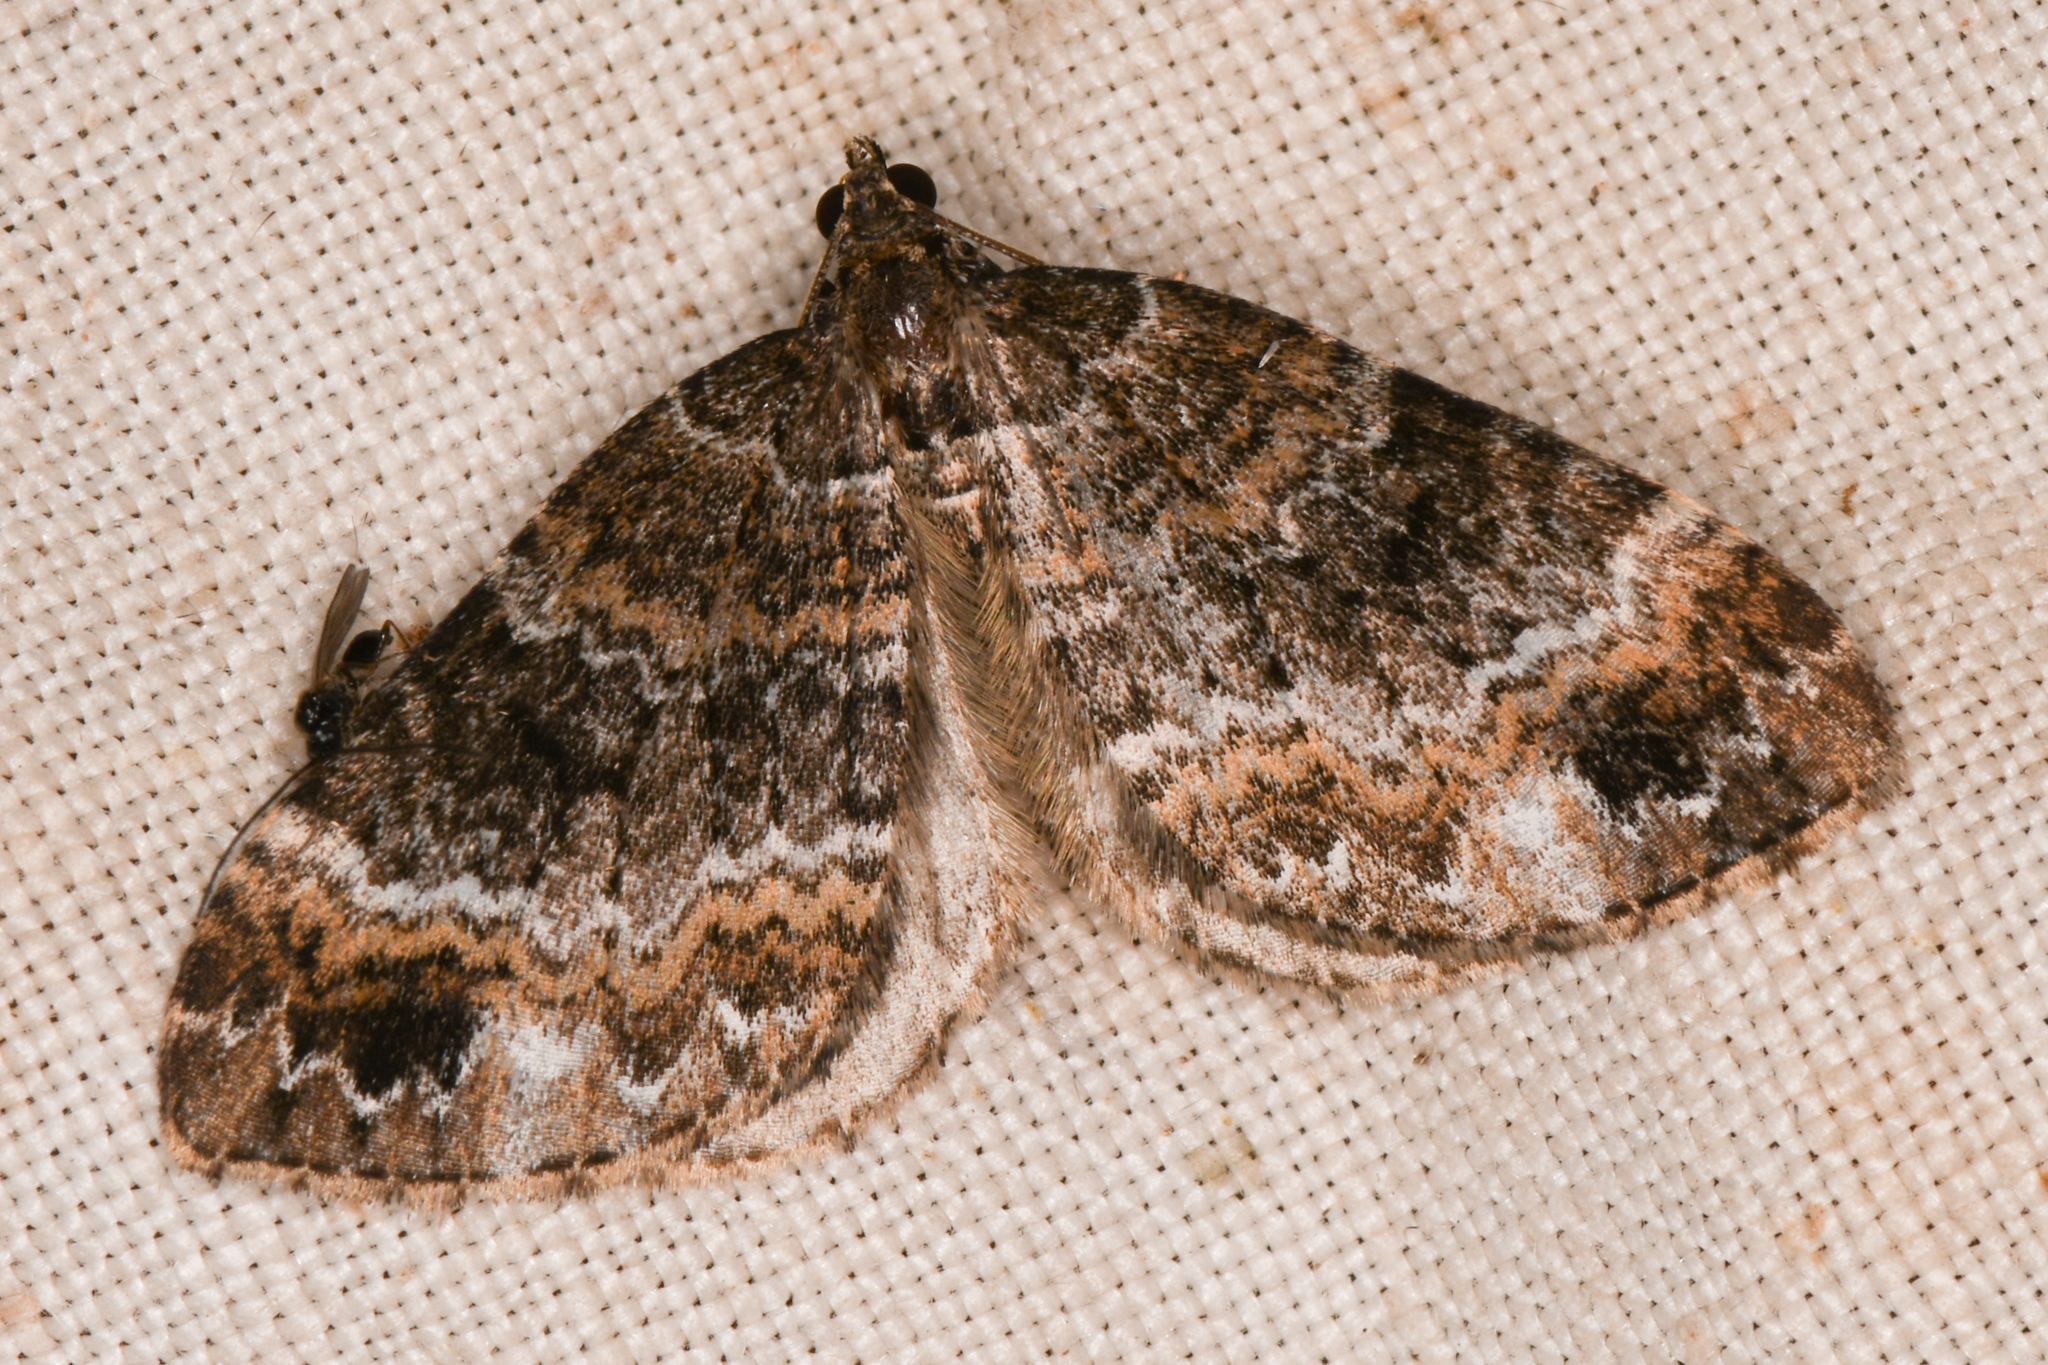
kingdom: Animalia
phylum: Arthropoda
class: Insecta
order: Lepidoptera
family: Geometridae
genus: Martania
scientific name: Martania
